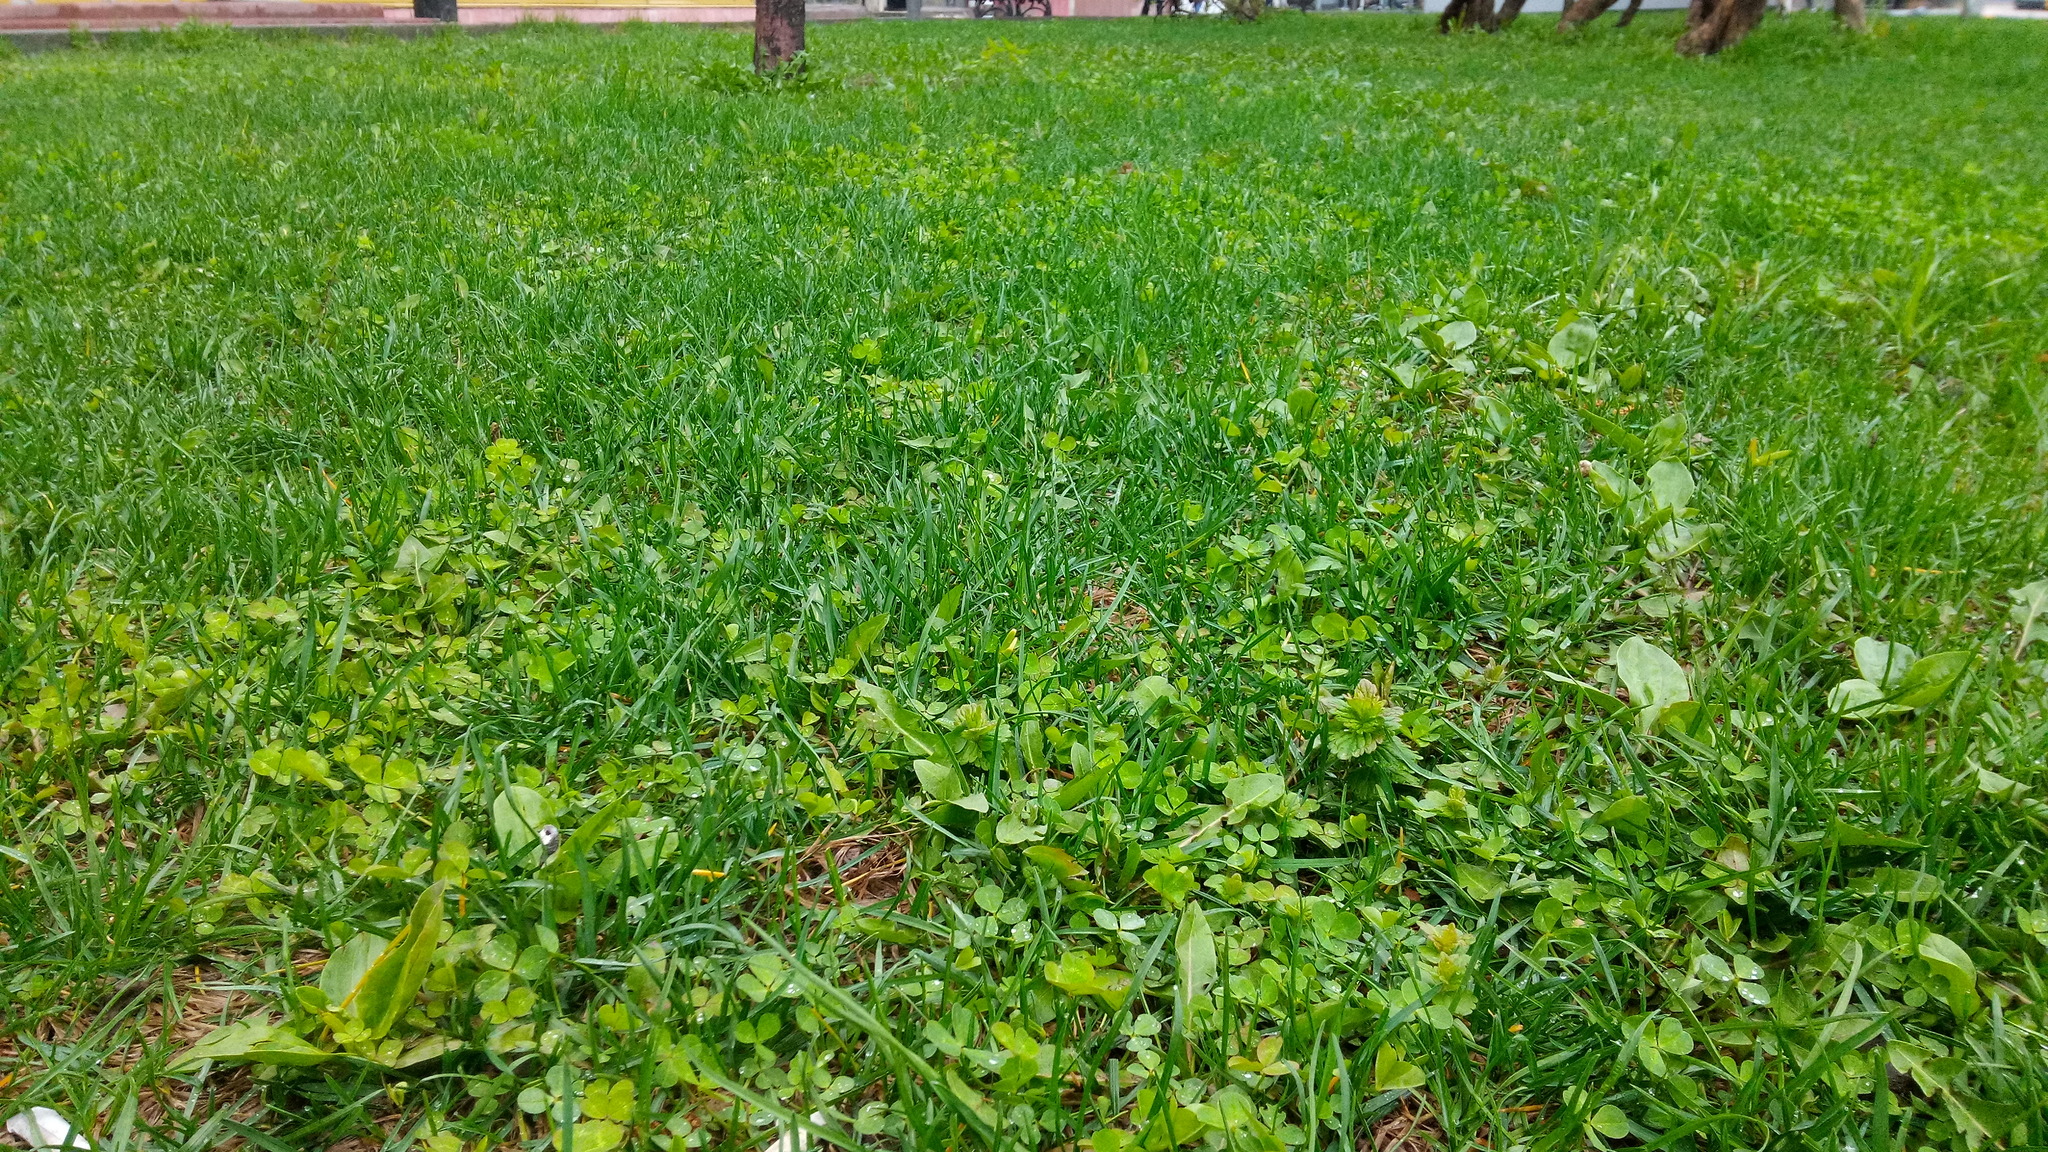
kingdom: Plantae
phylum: Tracheophyta
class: Magnoliopsida
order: Fabales
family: Fabaceae
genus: Trifolium
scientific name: Trifolium repens
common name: White clover
